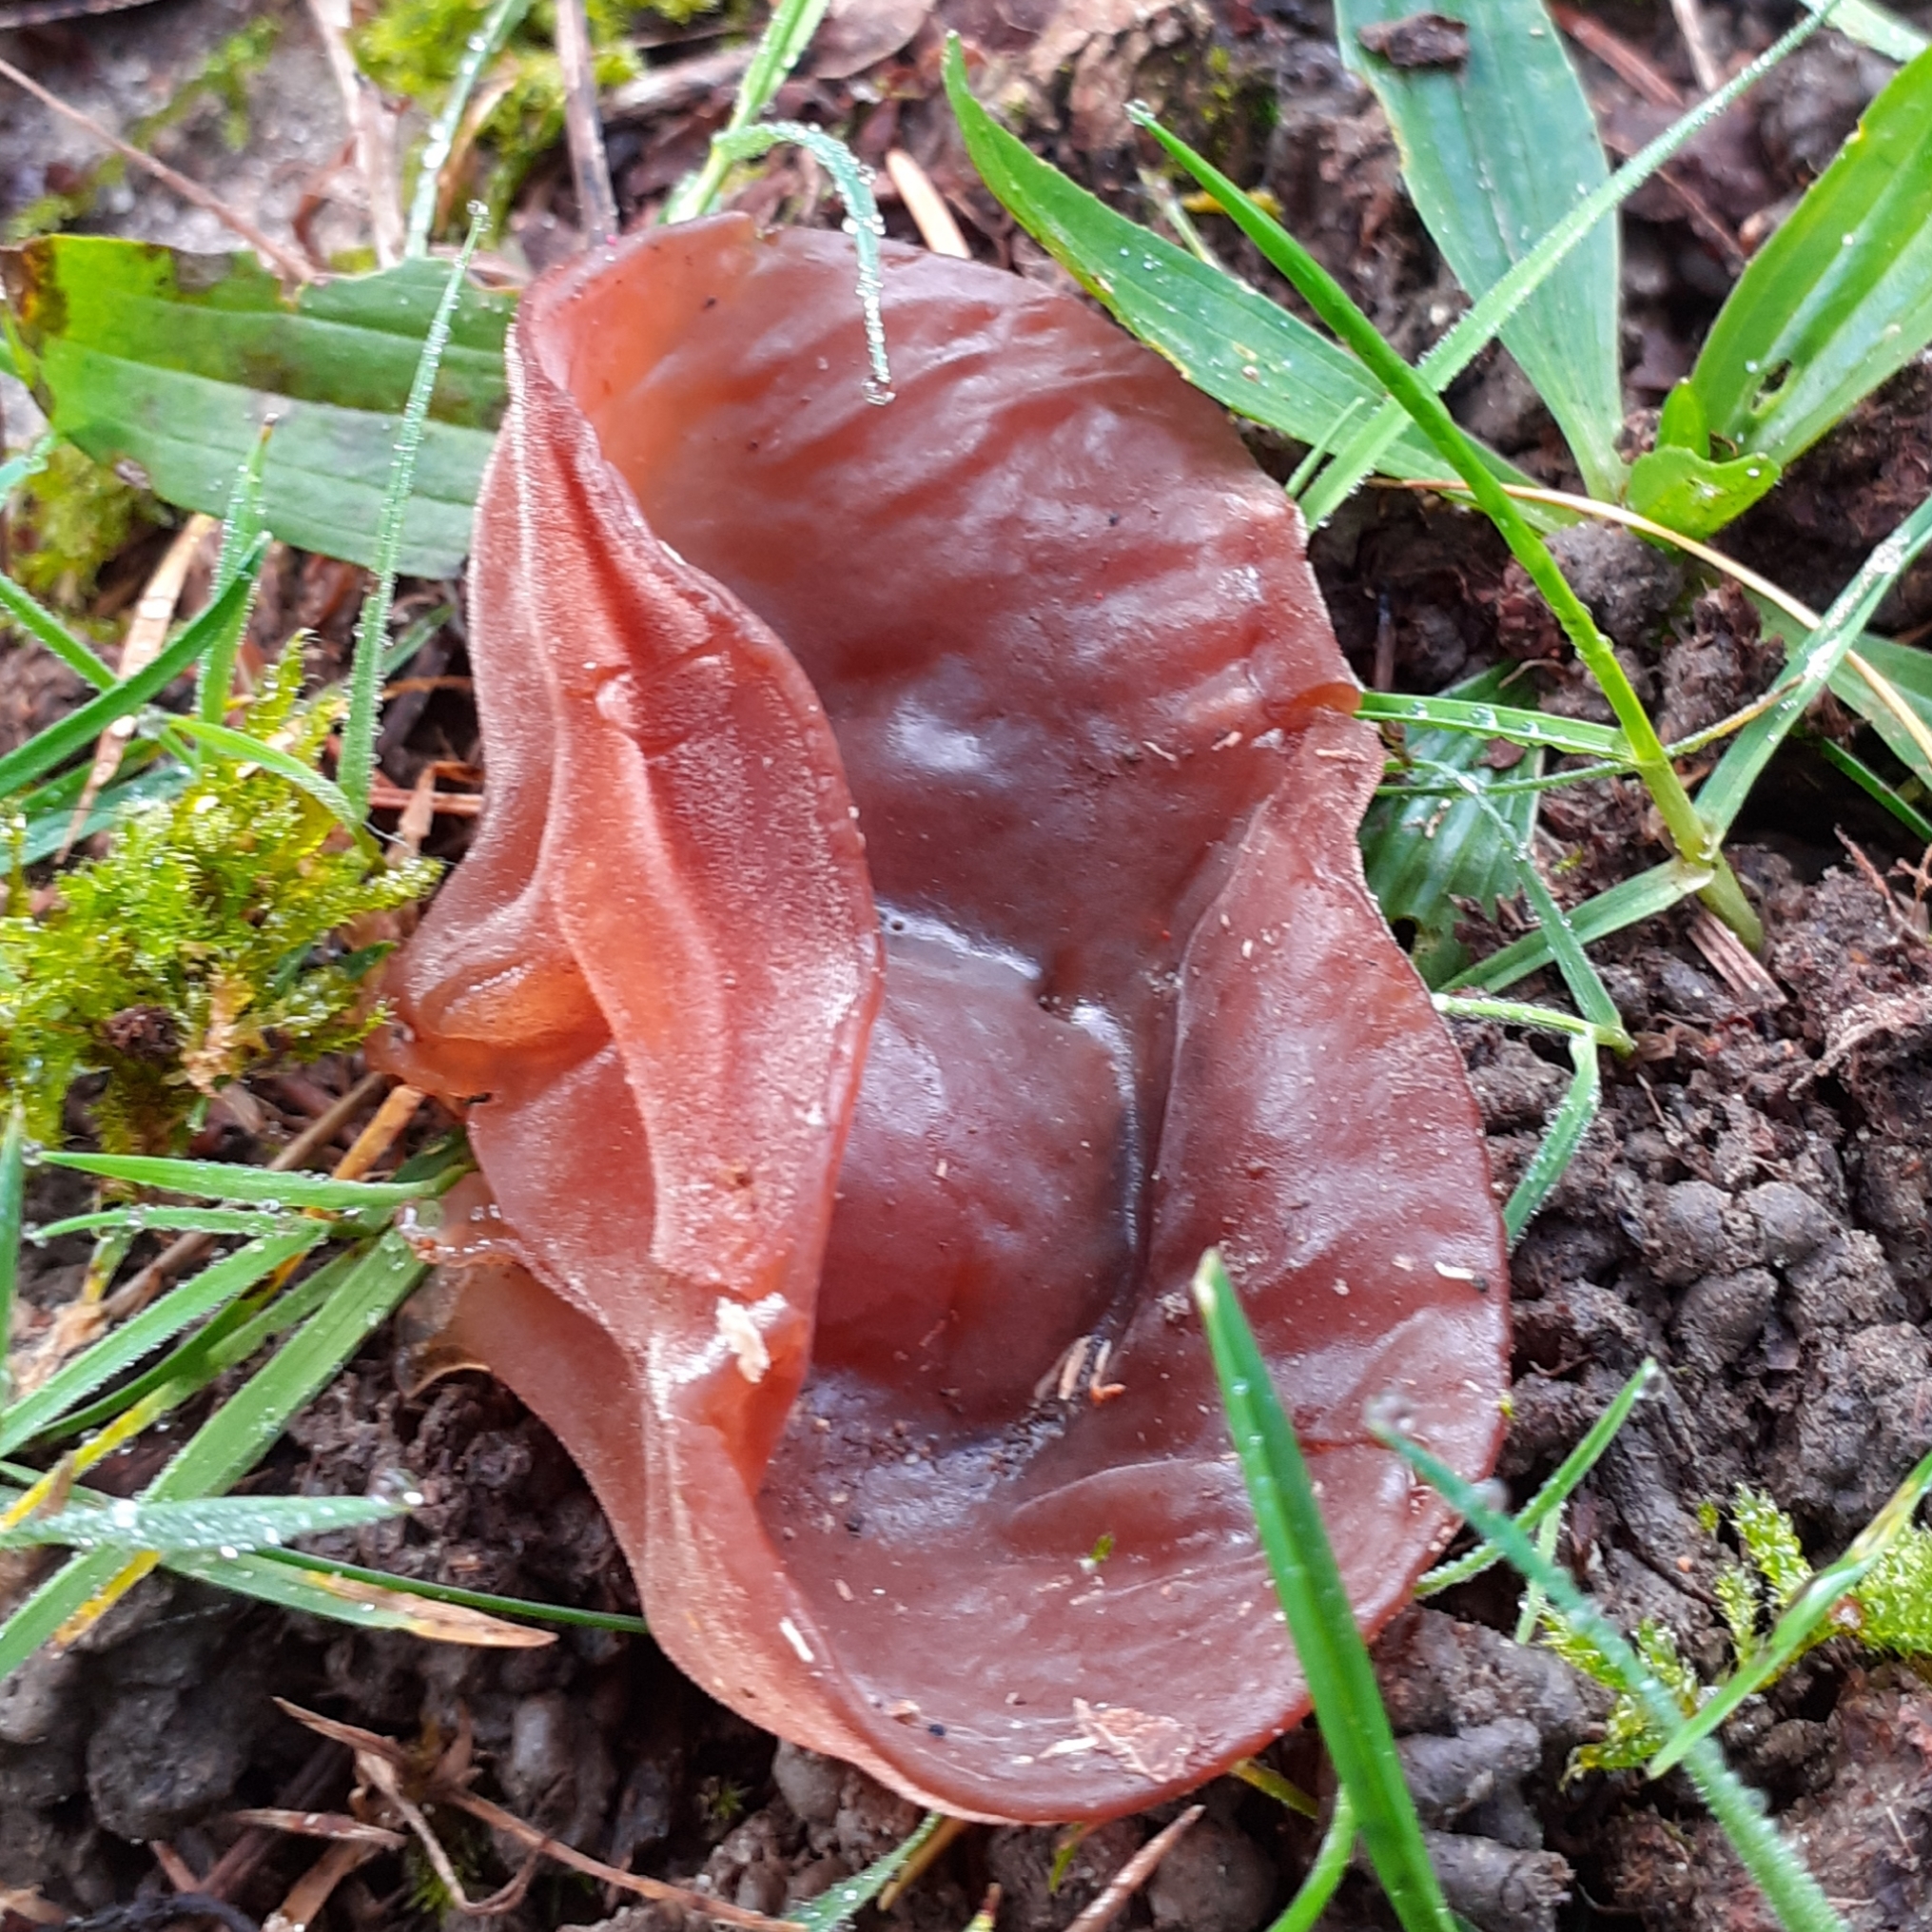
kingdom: Fungi
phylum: Basidiomycota
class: Agaricomycetes
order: Auriculariales
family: Auriculariaceae
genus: Auricularia
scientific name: Auricularia auricula-judae
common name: Jelly ear
